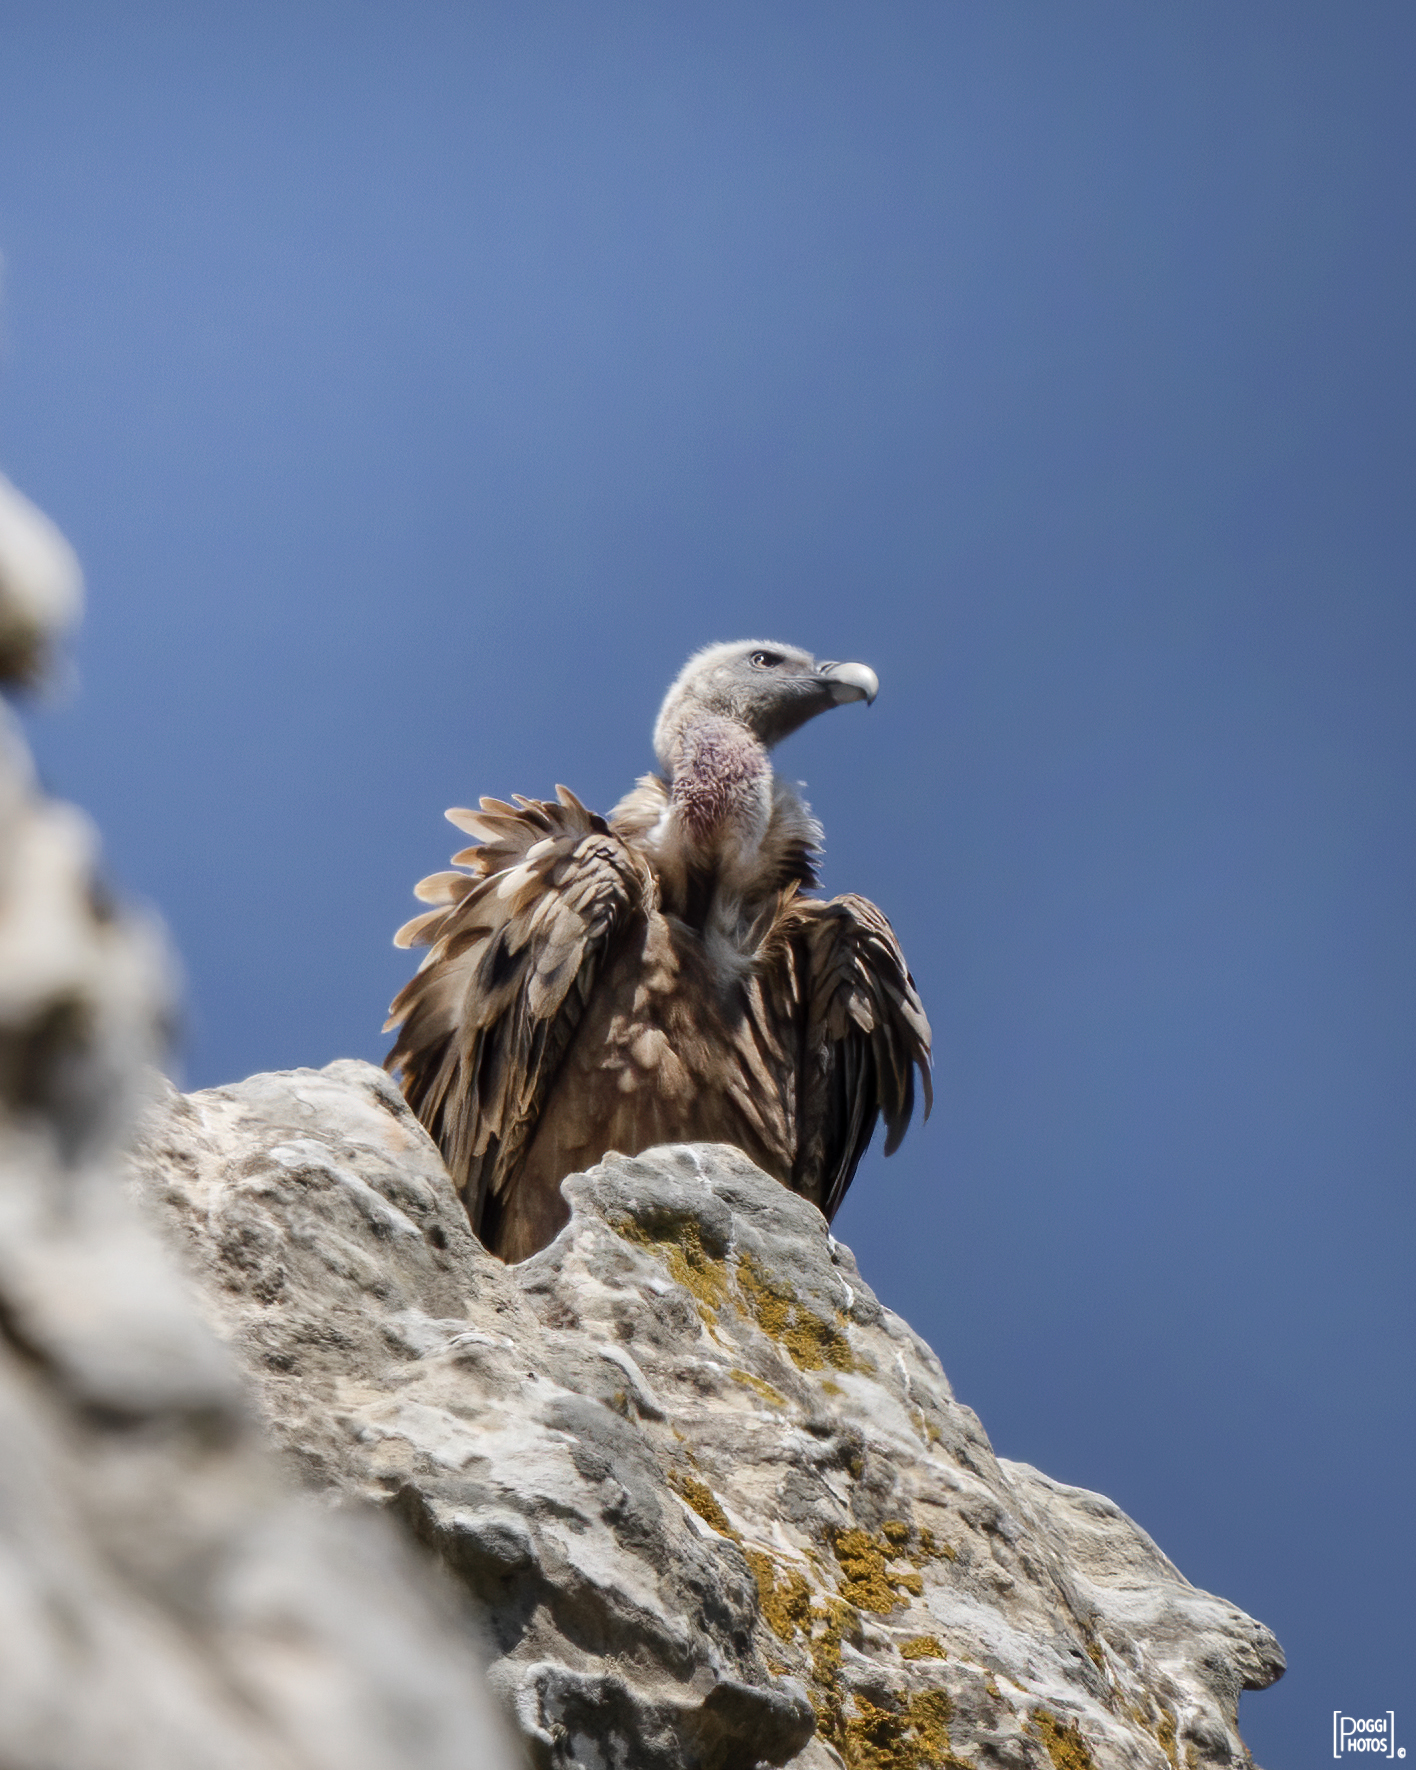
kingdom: Animalia
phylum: Chordata
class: Aves
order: Accipitriformes
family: Accipitridae
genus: Gyps
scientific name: Gyps fulvus
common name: Griffon vulture
